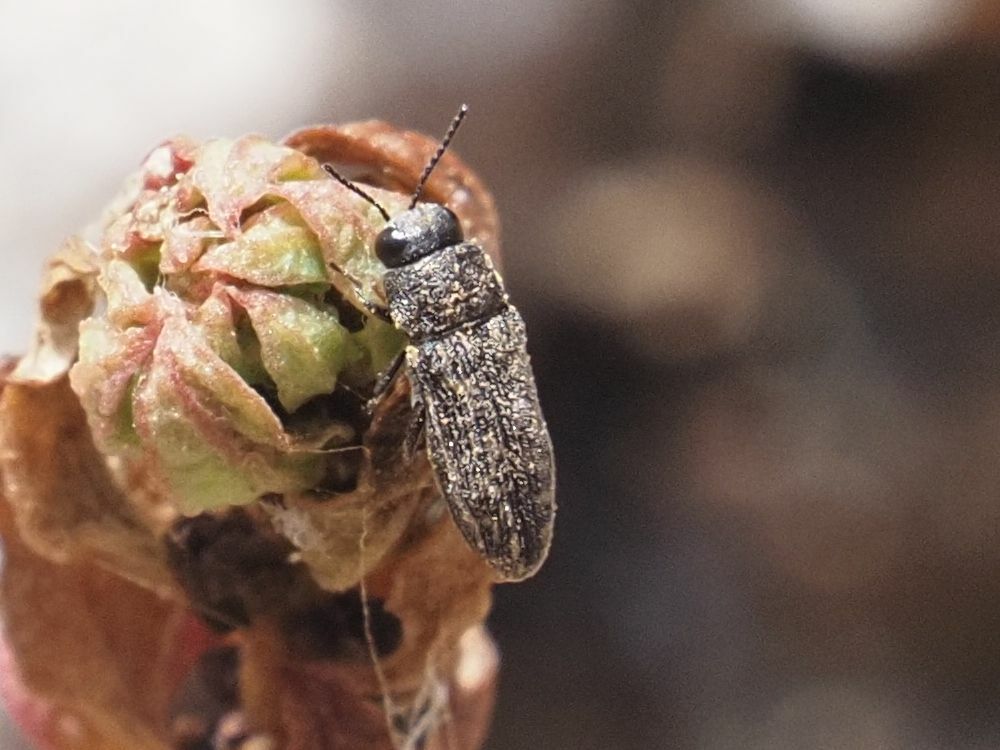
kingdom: Animalia
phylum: Arthropoda
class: Insecta
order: Coleoptera
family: Buprestidae
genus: Acmaeodera
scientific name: Acmaeodera cisti
